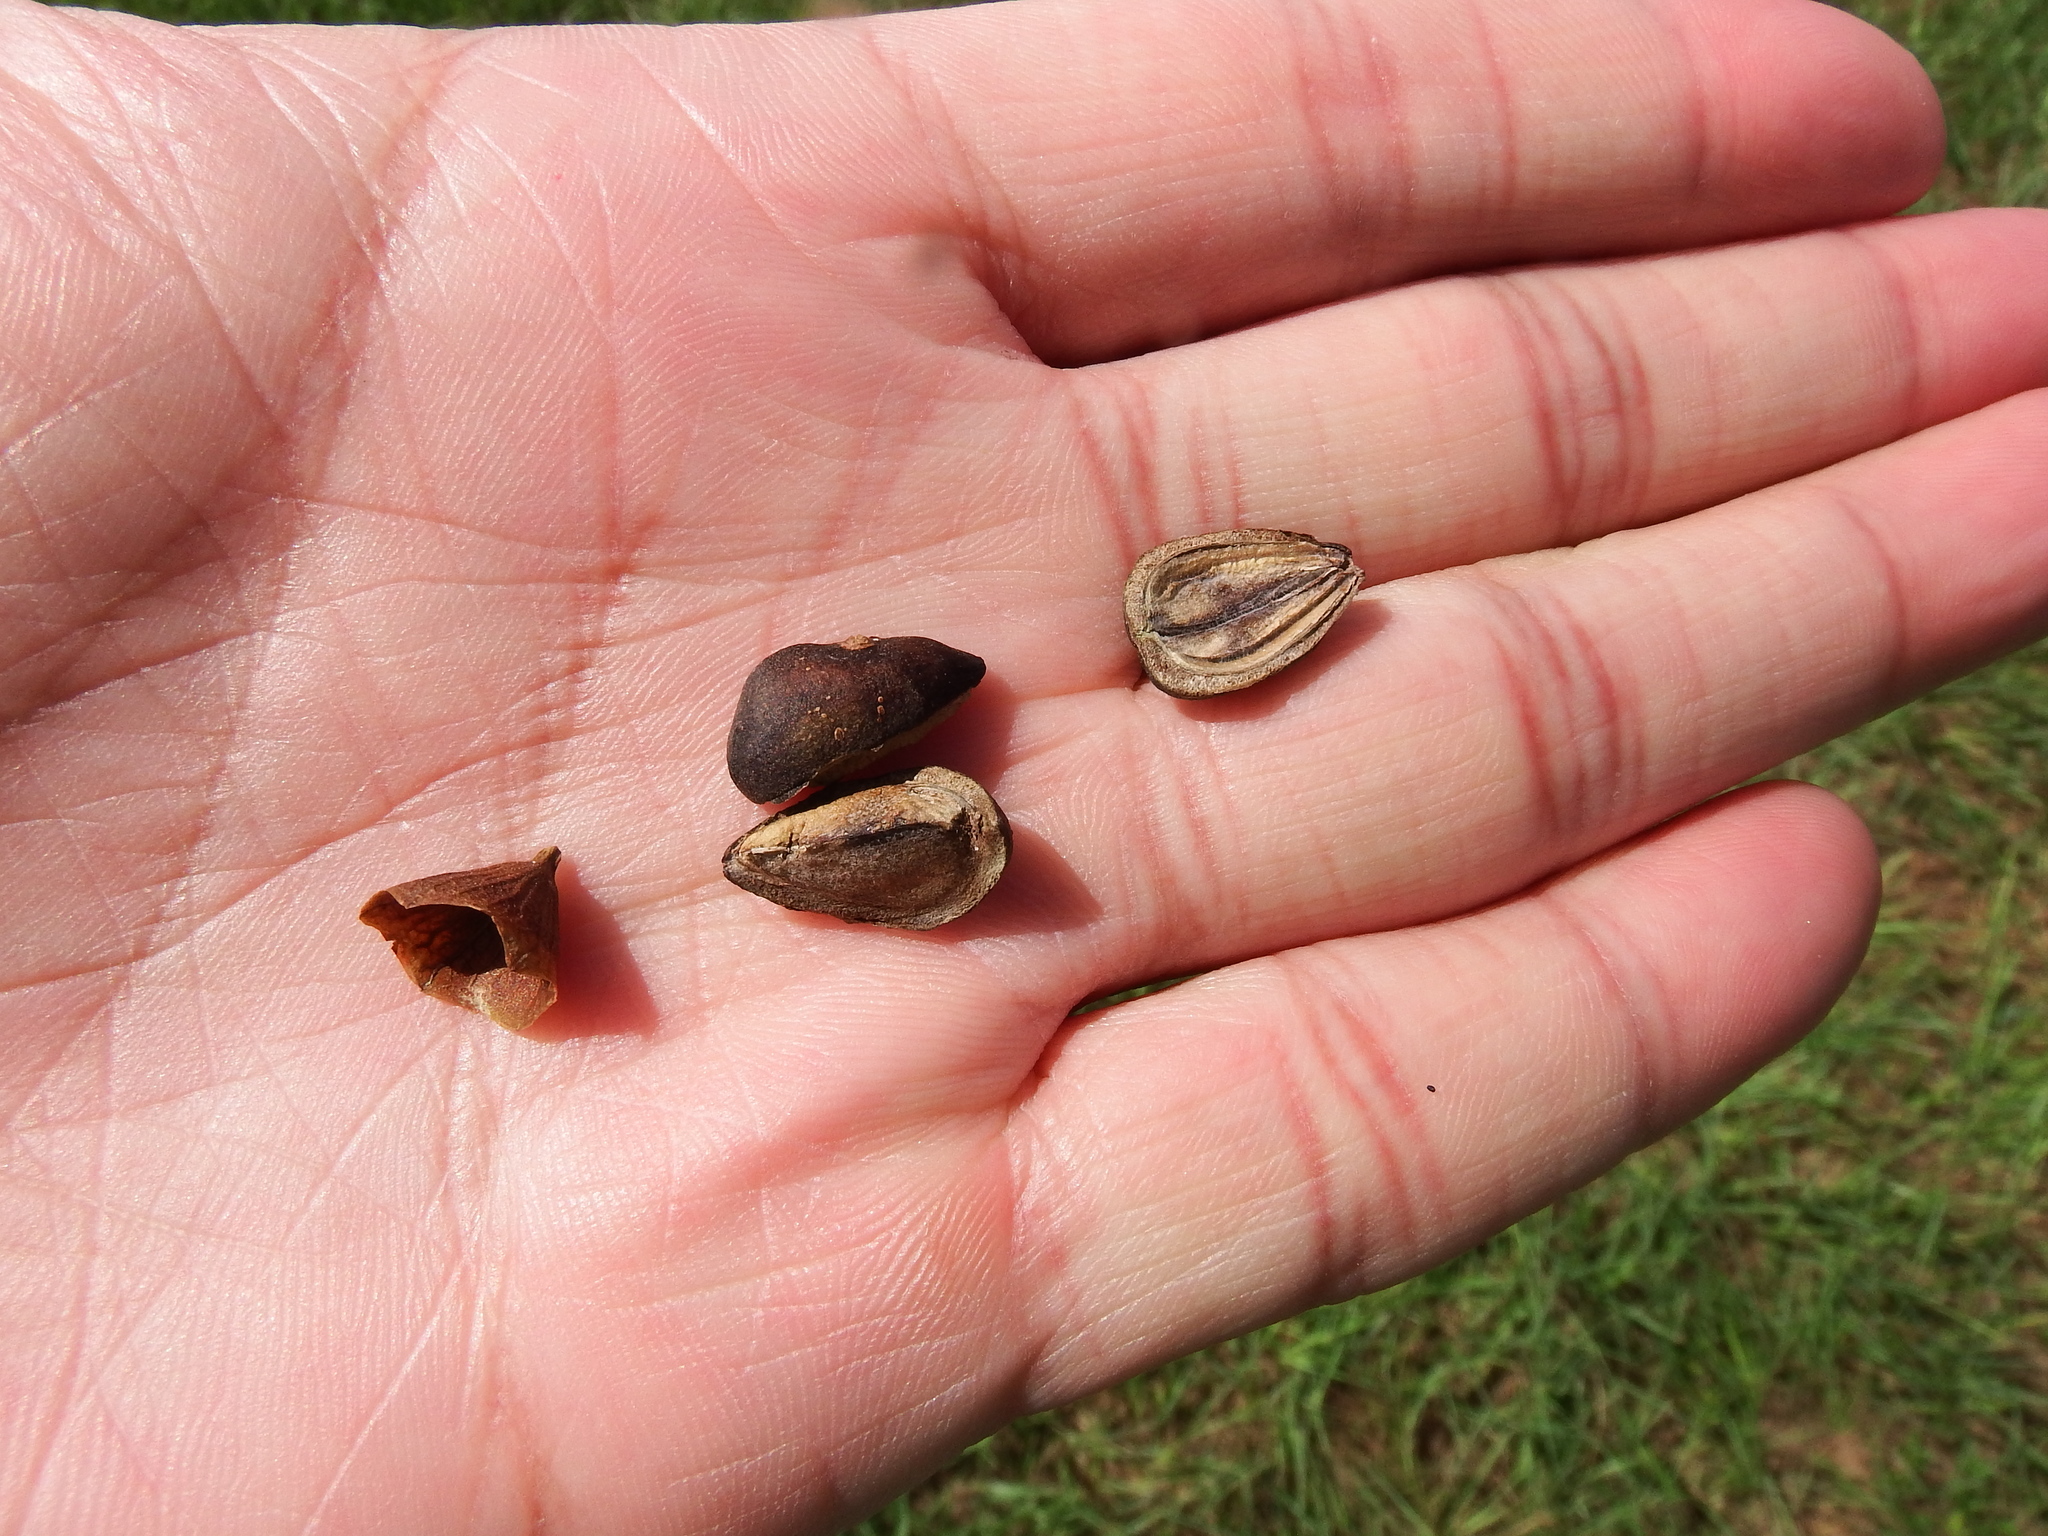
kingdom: Plantae
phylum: Tracheophyta
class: Magnoliopsida
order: Lamiales
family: Lamiaceae
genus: Volkameria
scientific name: Volkameria inermis
